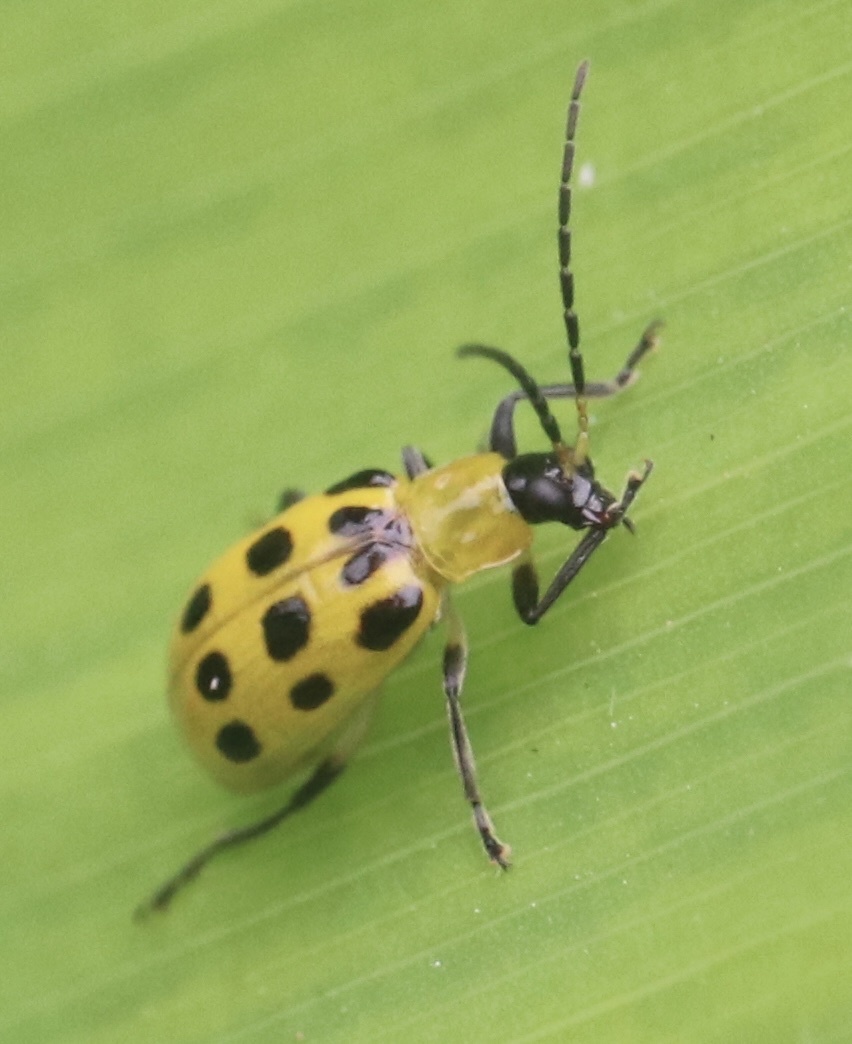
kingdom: Animalia
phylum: Arthropoda
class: Insecta
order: Coleoptera
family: Chrysomelidae
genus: Diabrotica
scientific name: Diabrotica undecimpunctata
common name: Spotted cucumber beetle
